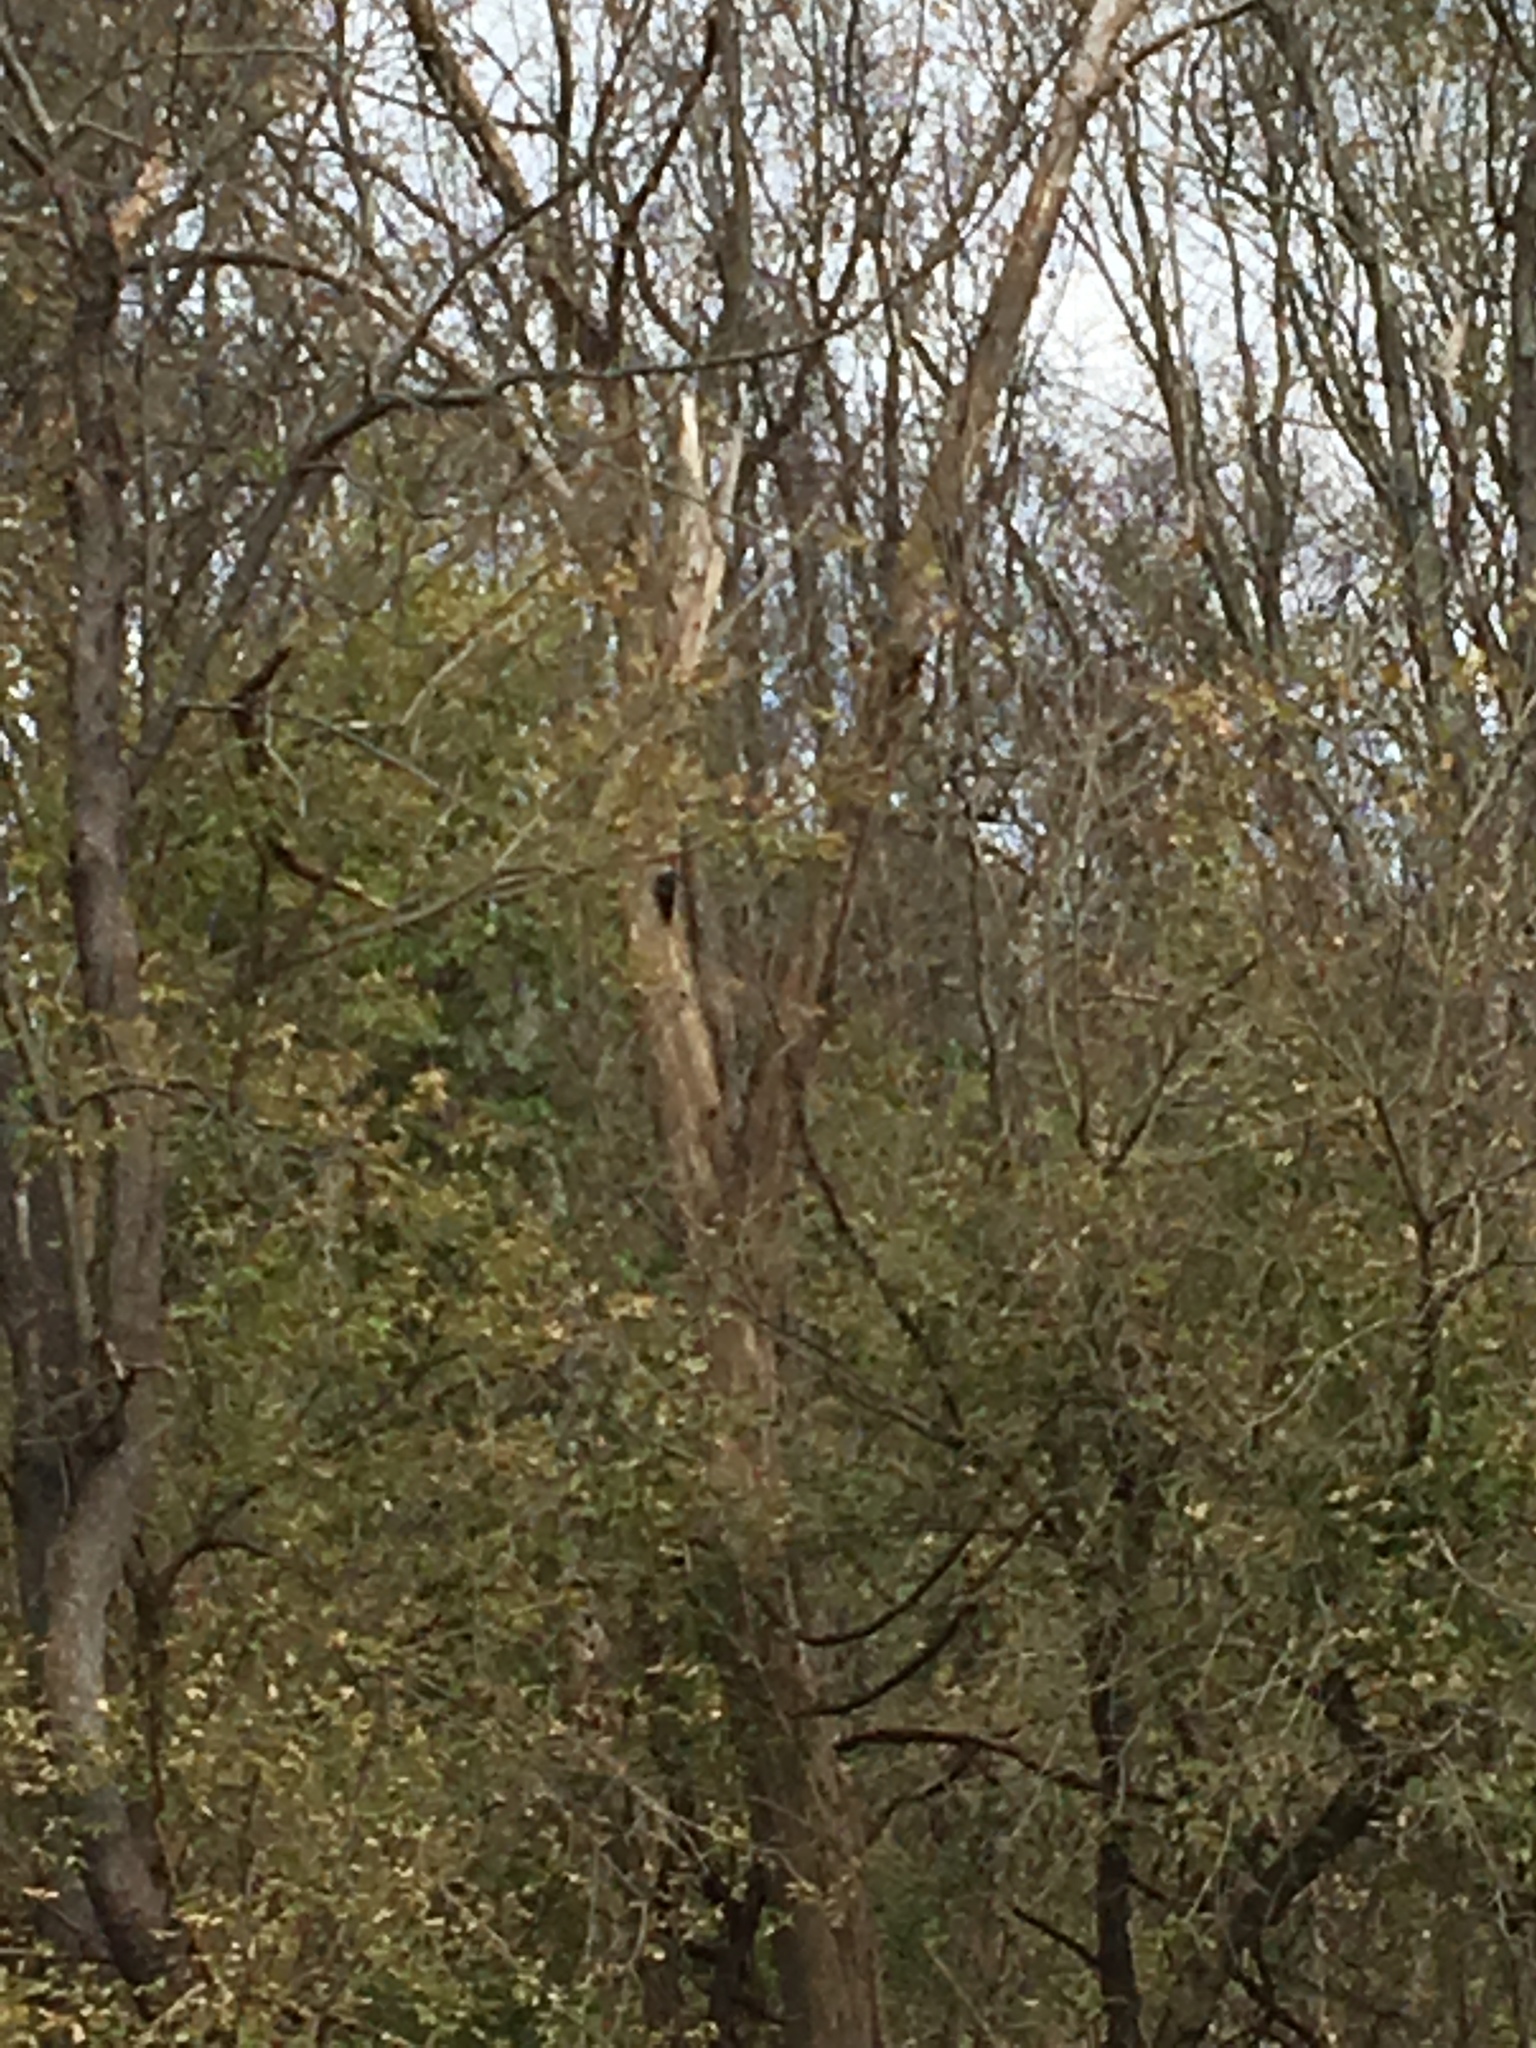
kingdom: Animalia
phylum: Chordata
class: Aves
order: Piciformes
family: Picidae
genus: Dryocopus
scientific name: Dryocopus pileatus
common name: Pileated woodpecker
